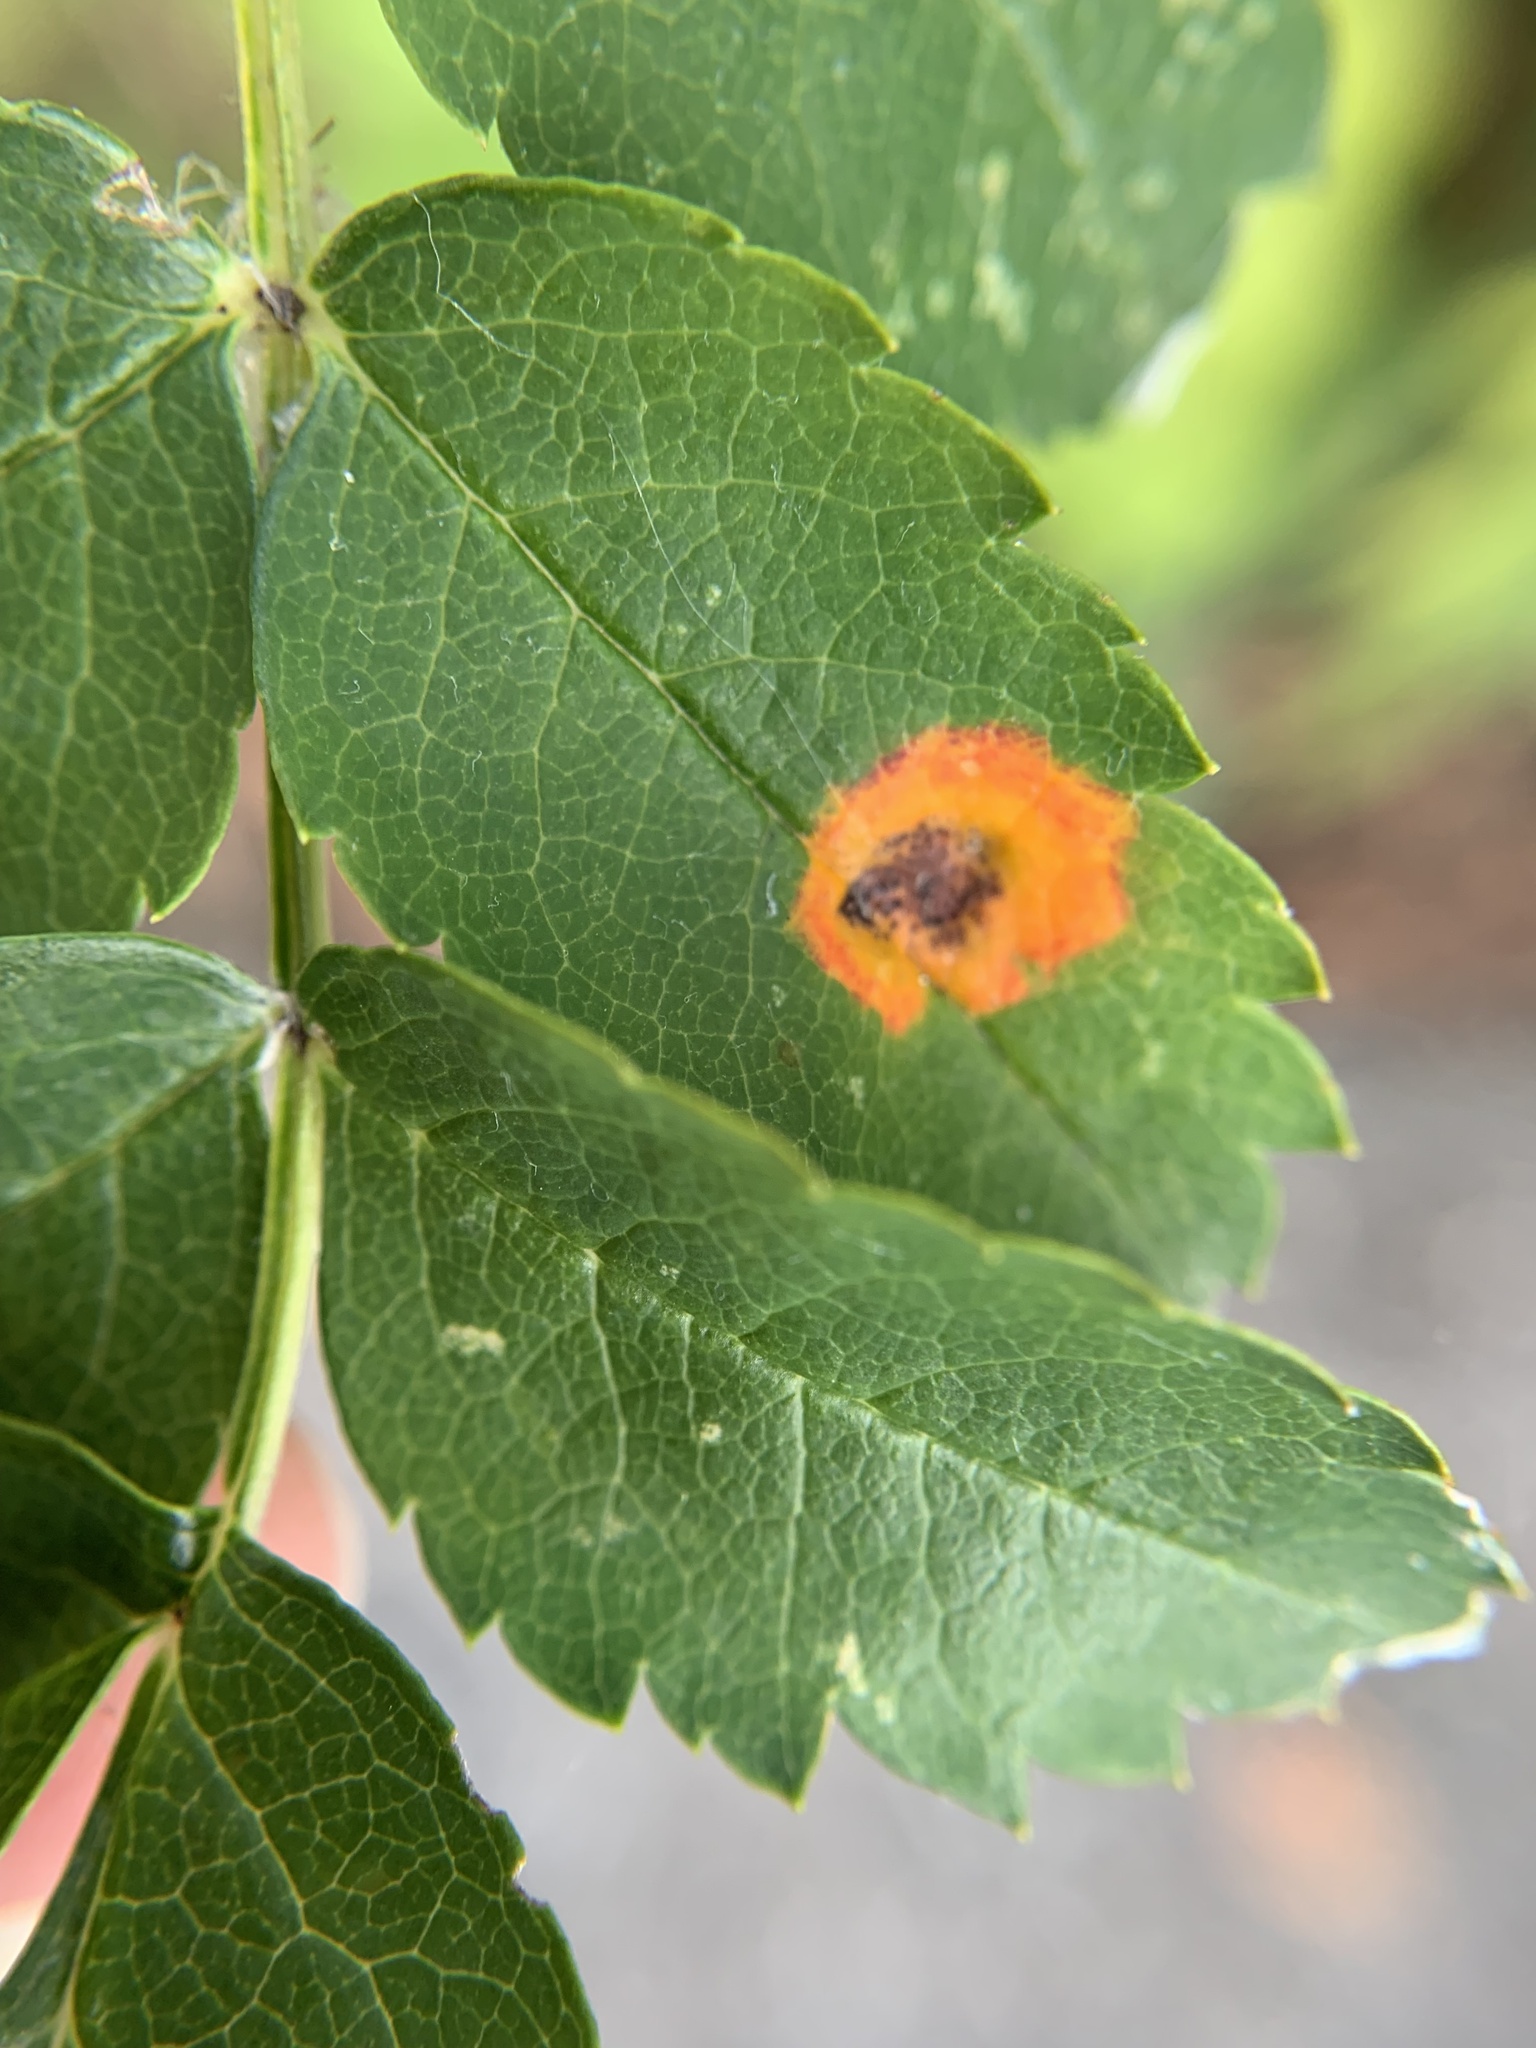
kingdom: Fungi
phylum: Basidiomycota
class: Pucciniomycetes
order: Pucciniales
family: Gymnosporangiaceae
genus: Gymnosporangium
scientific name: Gymnosporangium cornutum
